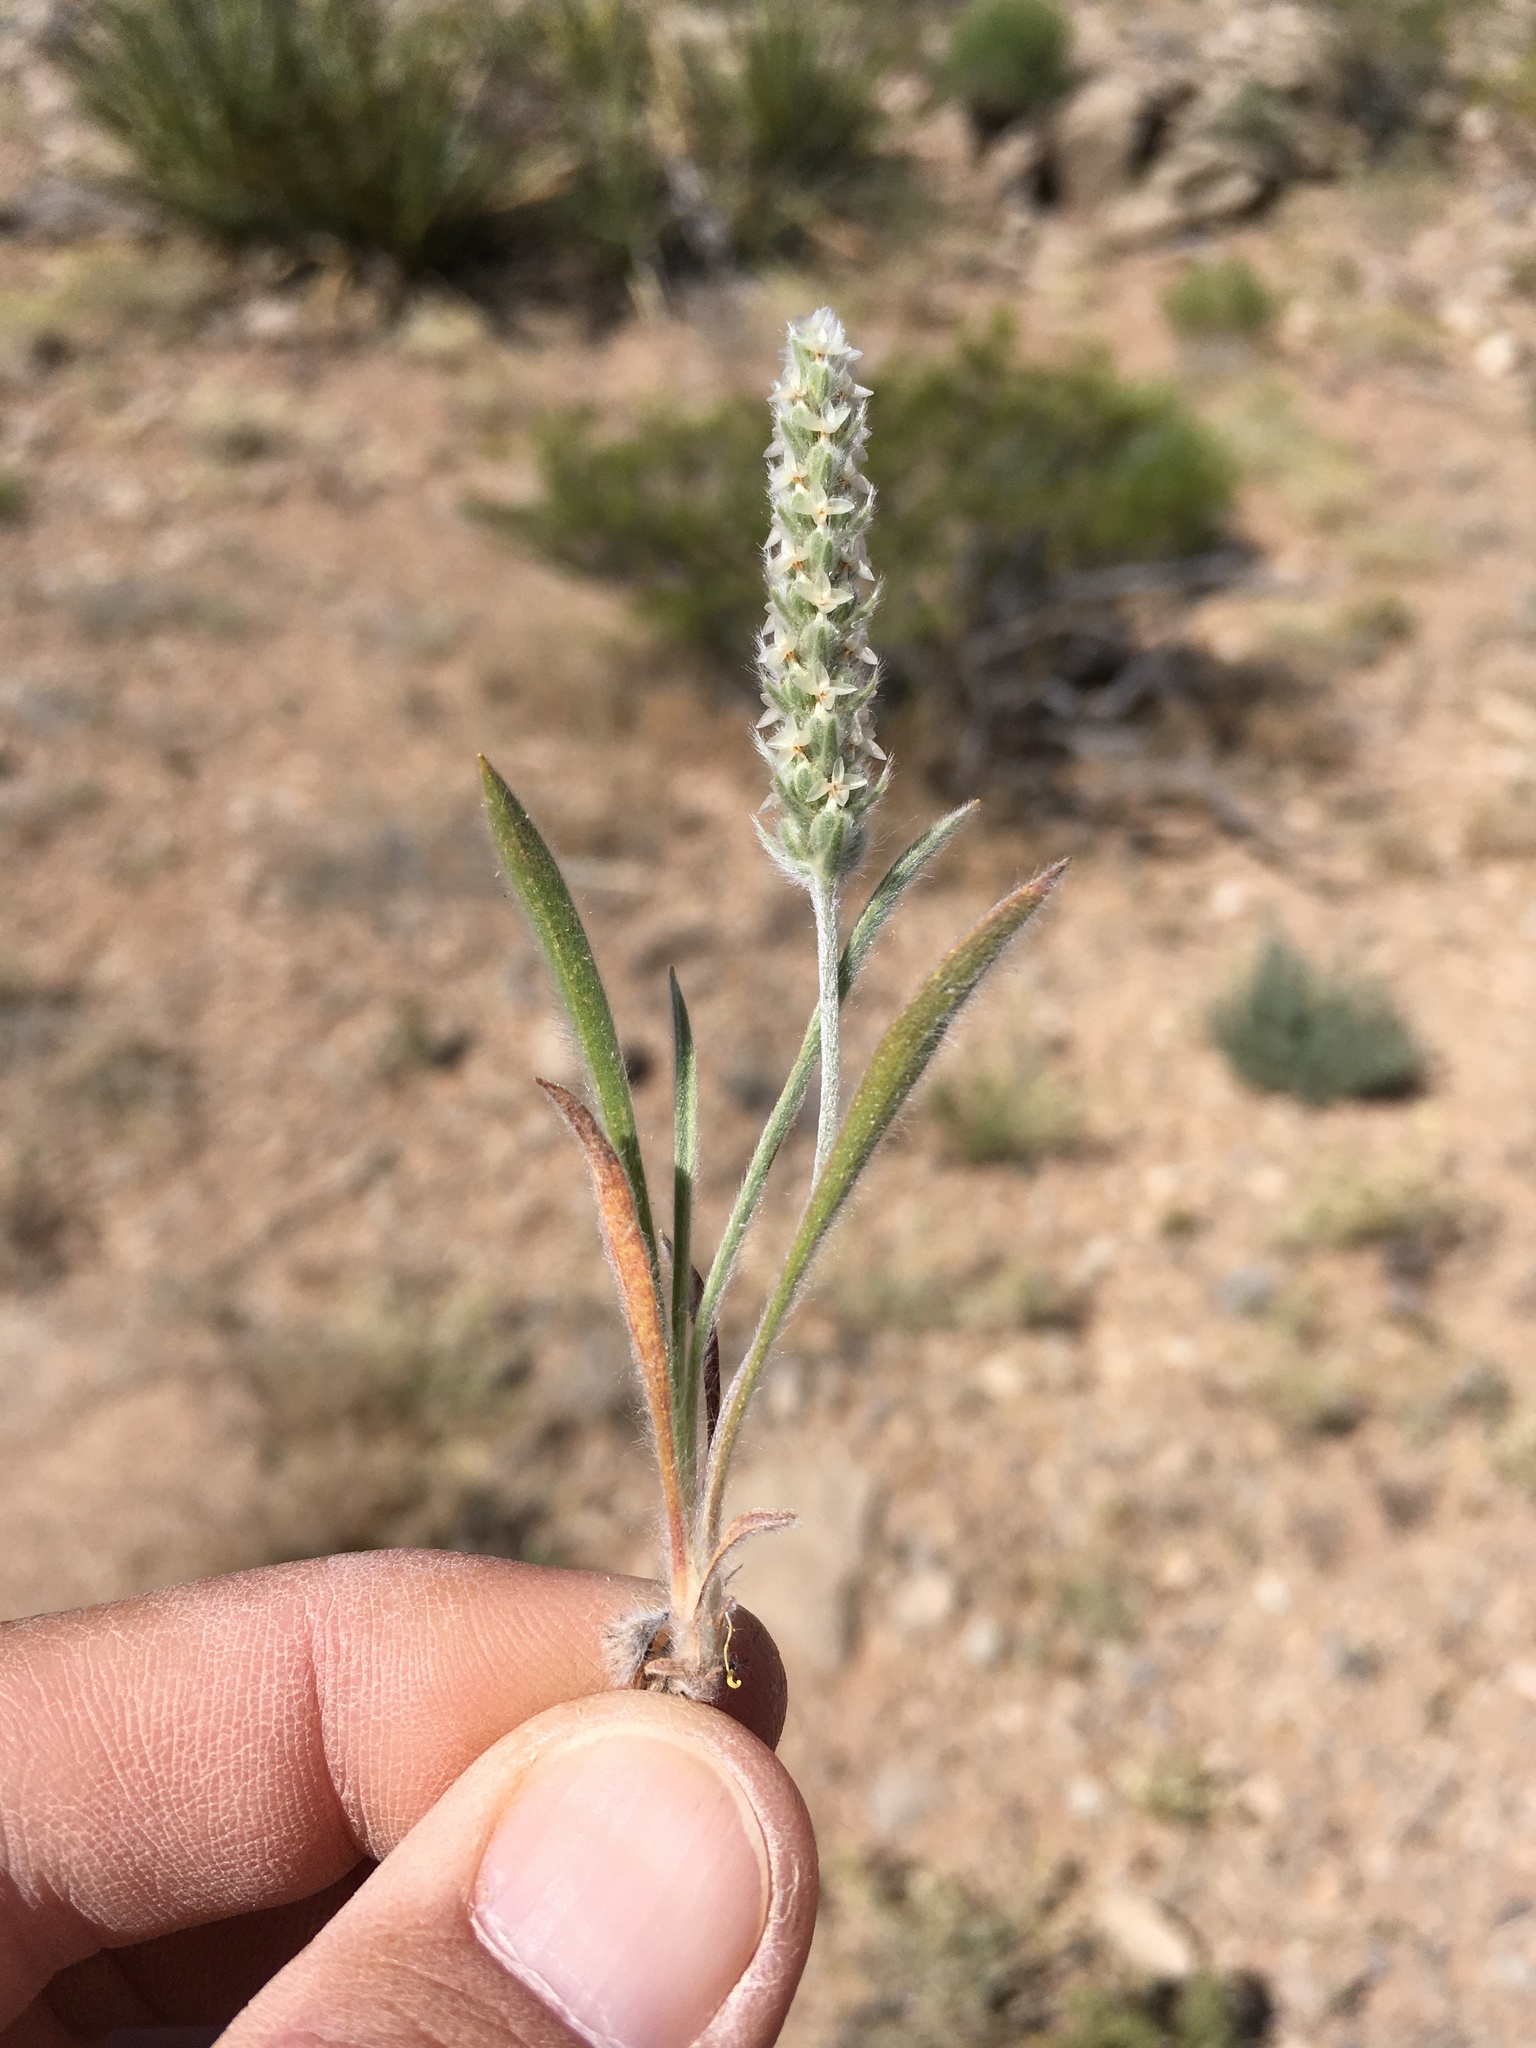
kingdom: Plantae
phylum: Tracheophyta
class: Magnoliopsida
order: Lamiales
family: Plantaginaceae
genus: Plantago
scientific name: Plantago patagonica
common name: Patagonia indian-wheat
